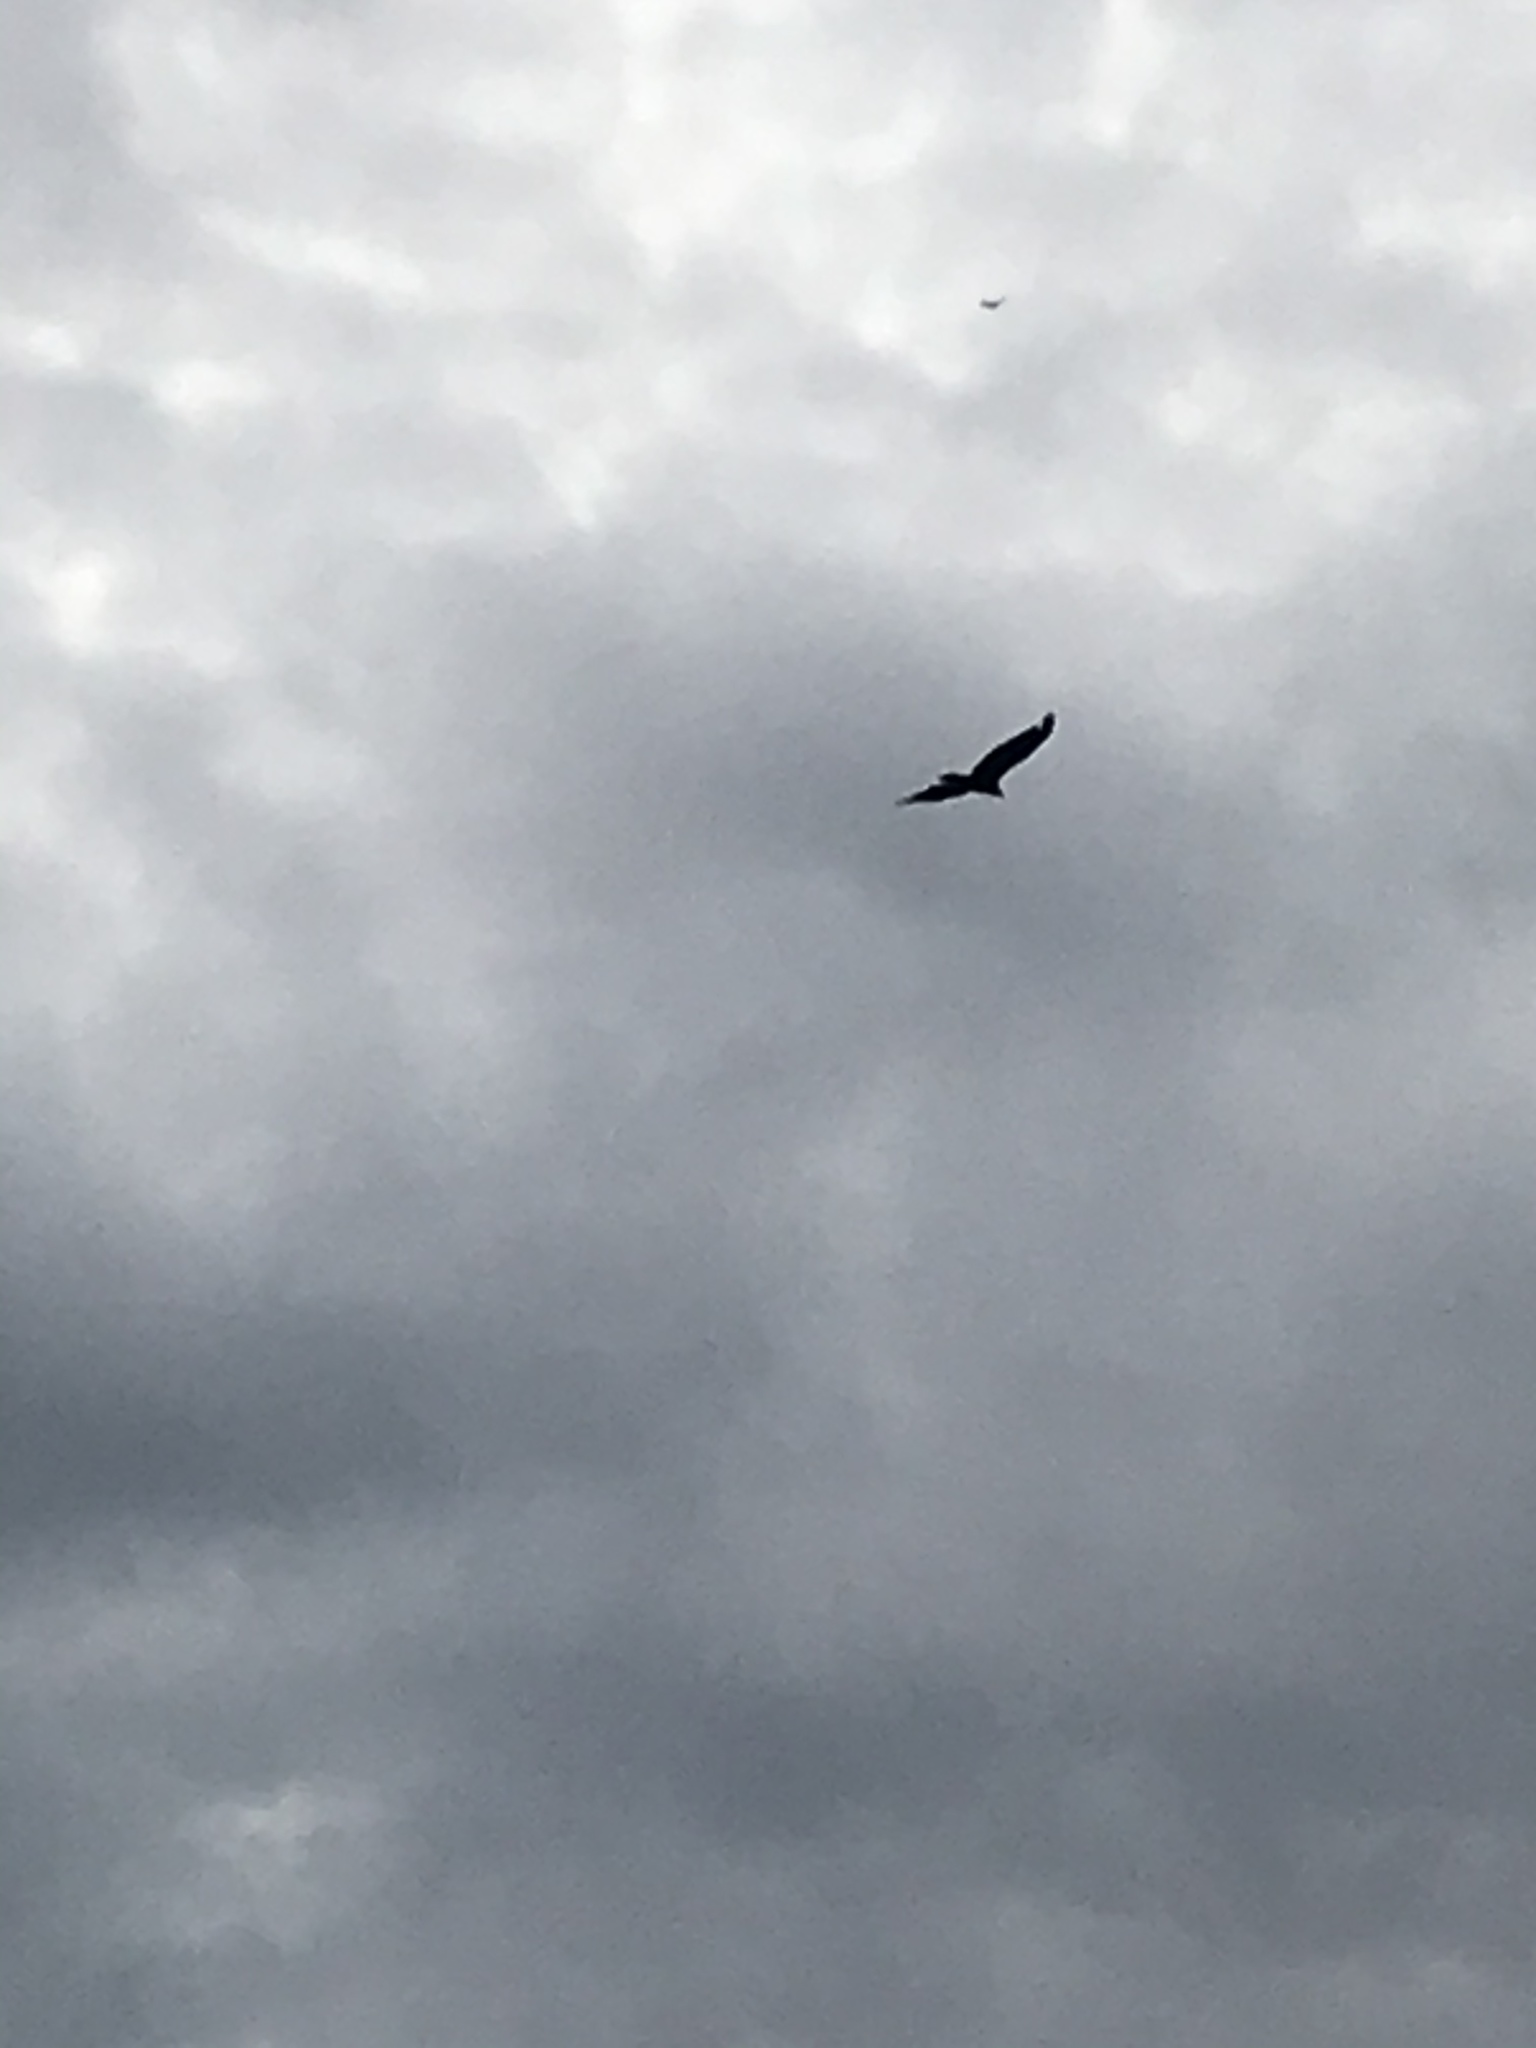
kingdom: Animalia
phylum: Chordata
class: Aves
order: Accipitriformes
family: Cathartidae
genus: Cathartes
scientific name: Cathartes aura
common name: Turkey vulture
